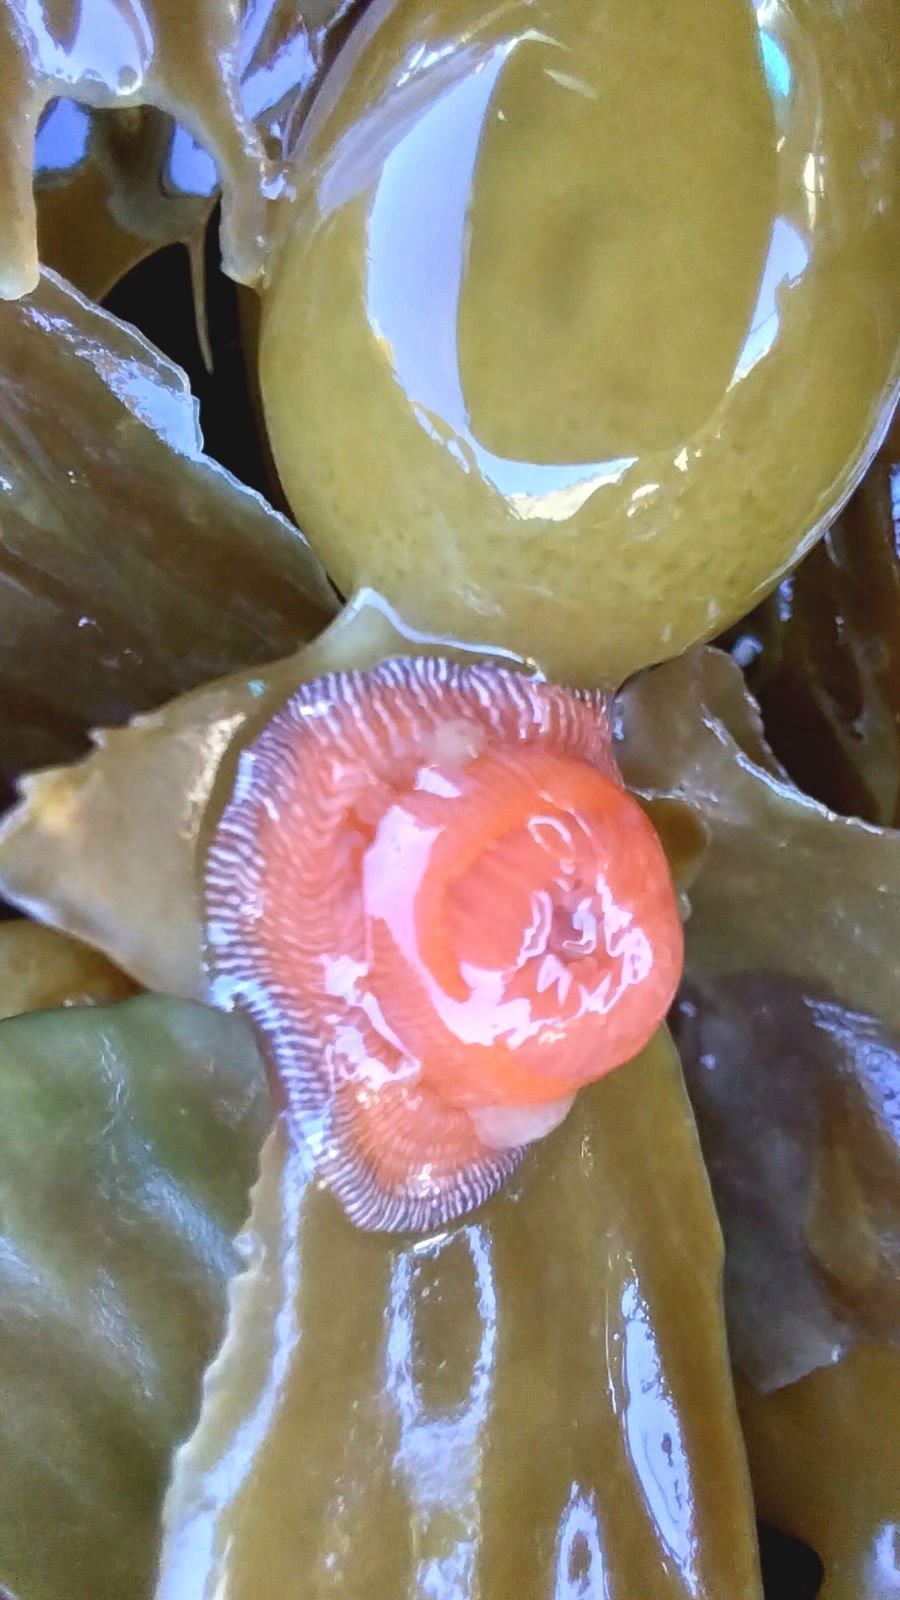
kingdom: Animalia
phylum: Cnidaria
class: Anthozoa
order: Actiniaria
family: Actiniidae
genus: Epiactis
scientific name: Epiactis prolifera
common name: Brooding anemone
